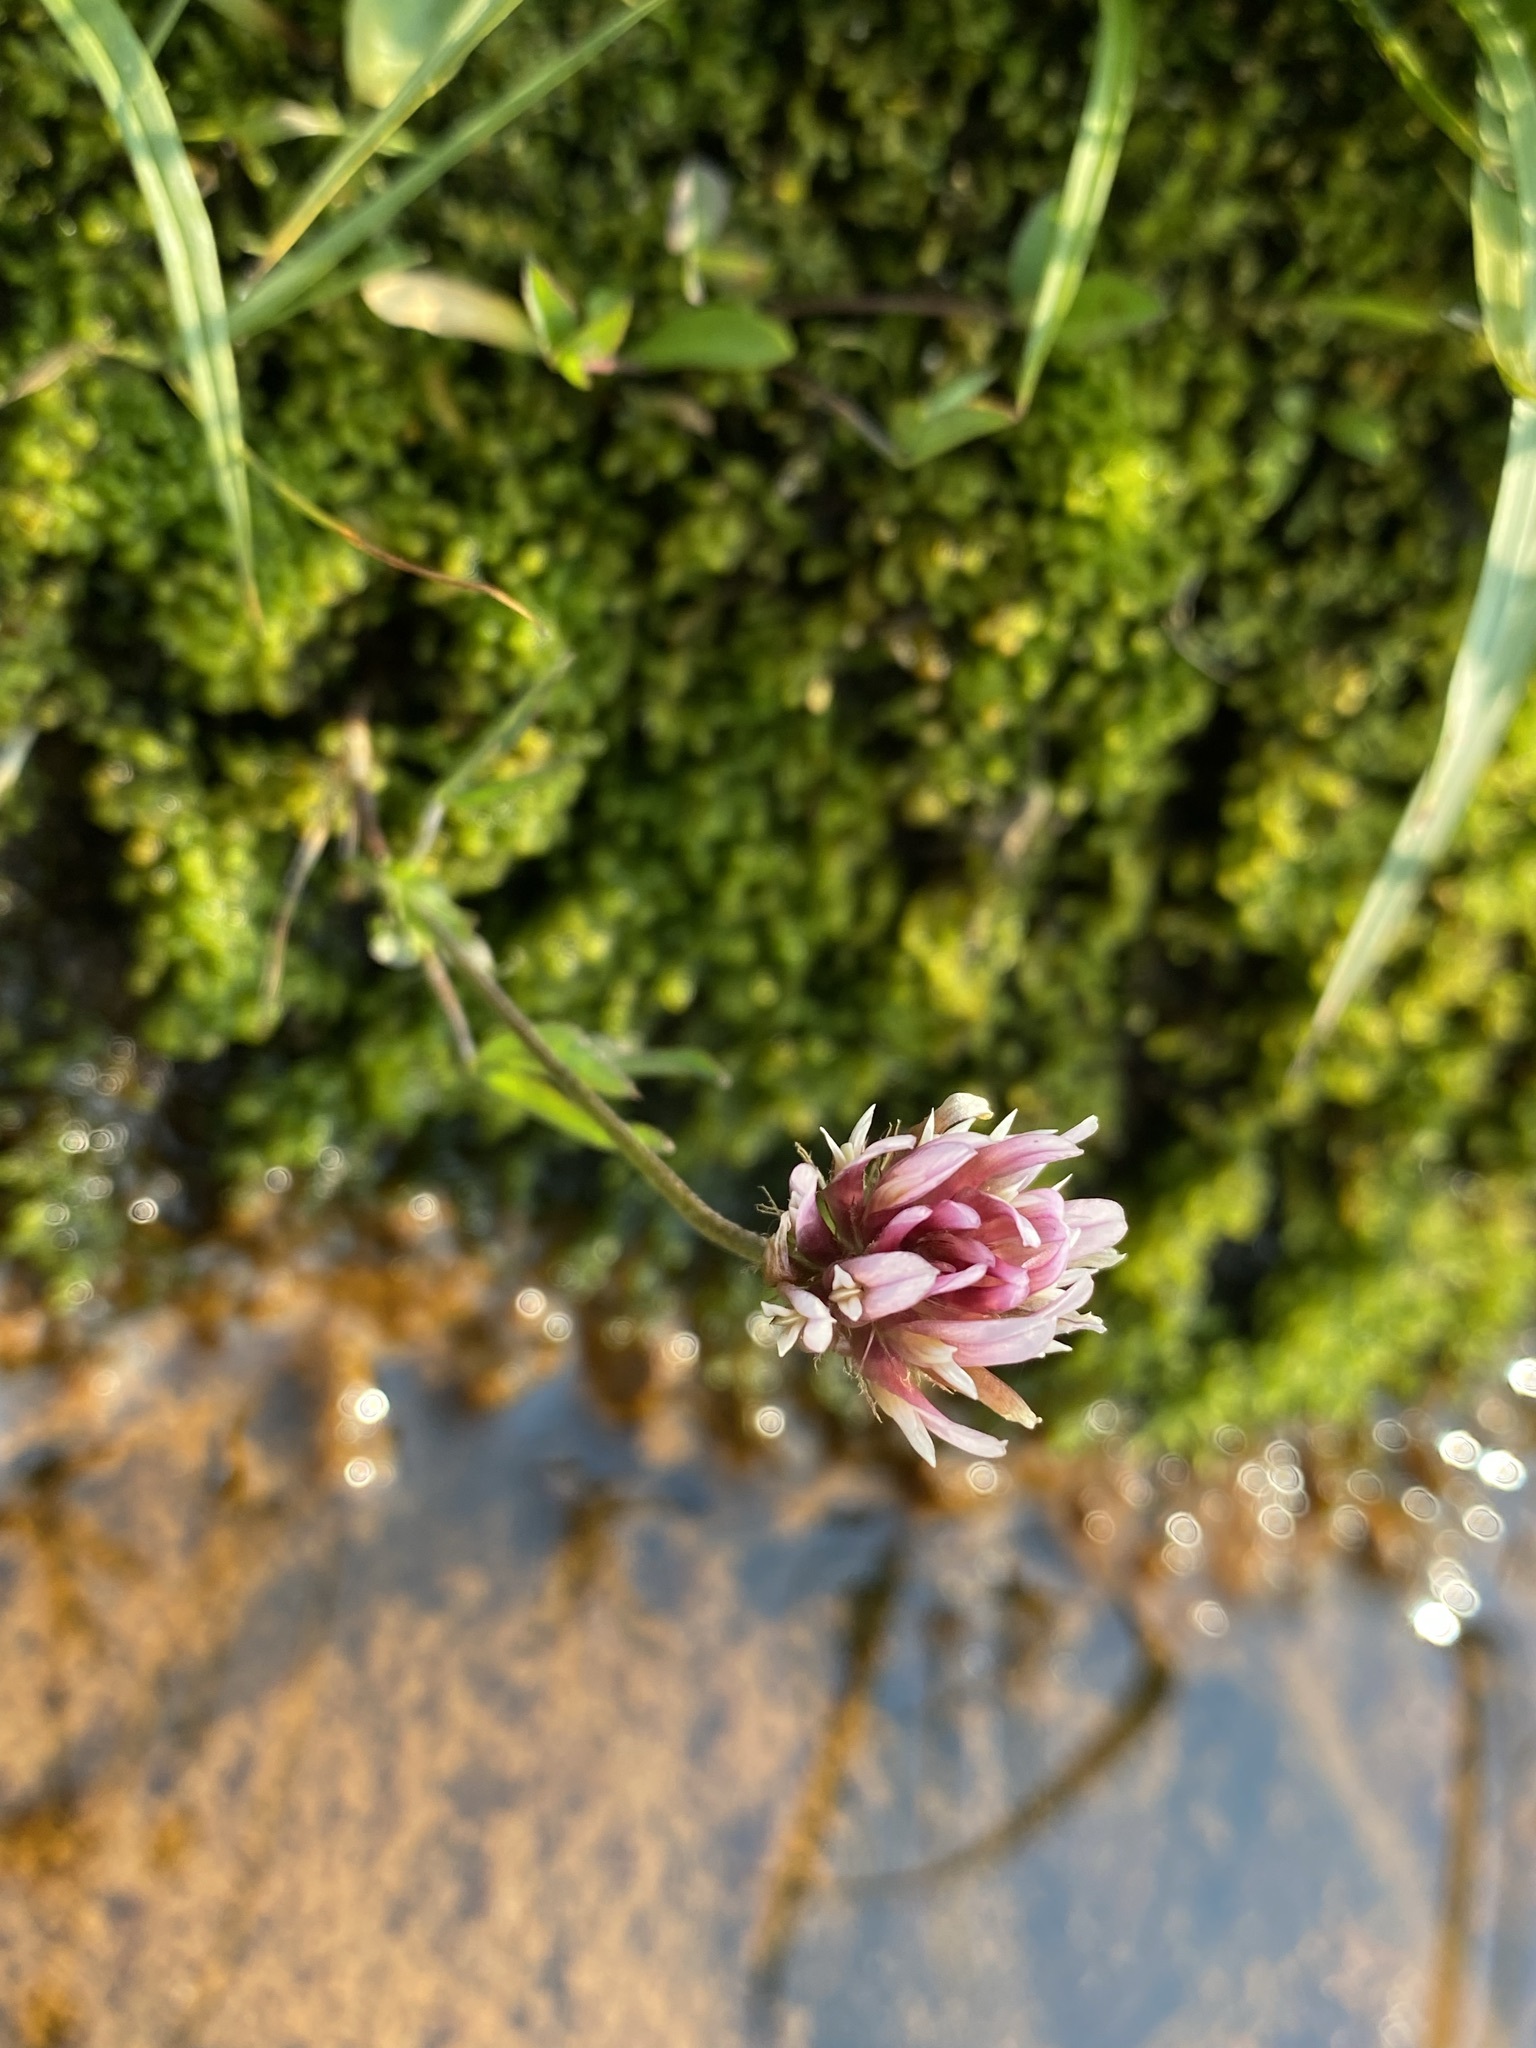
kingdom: Plantae
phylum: Tracheophyta
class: Magnoliopsida
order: Fabales
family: Fabaceae
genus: Trifolium
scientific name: Trifolium longipes
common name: Long-stalk clover
